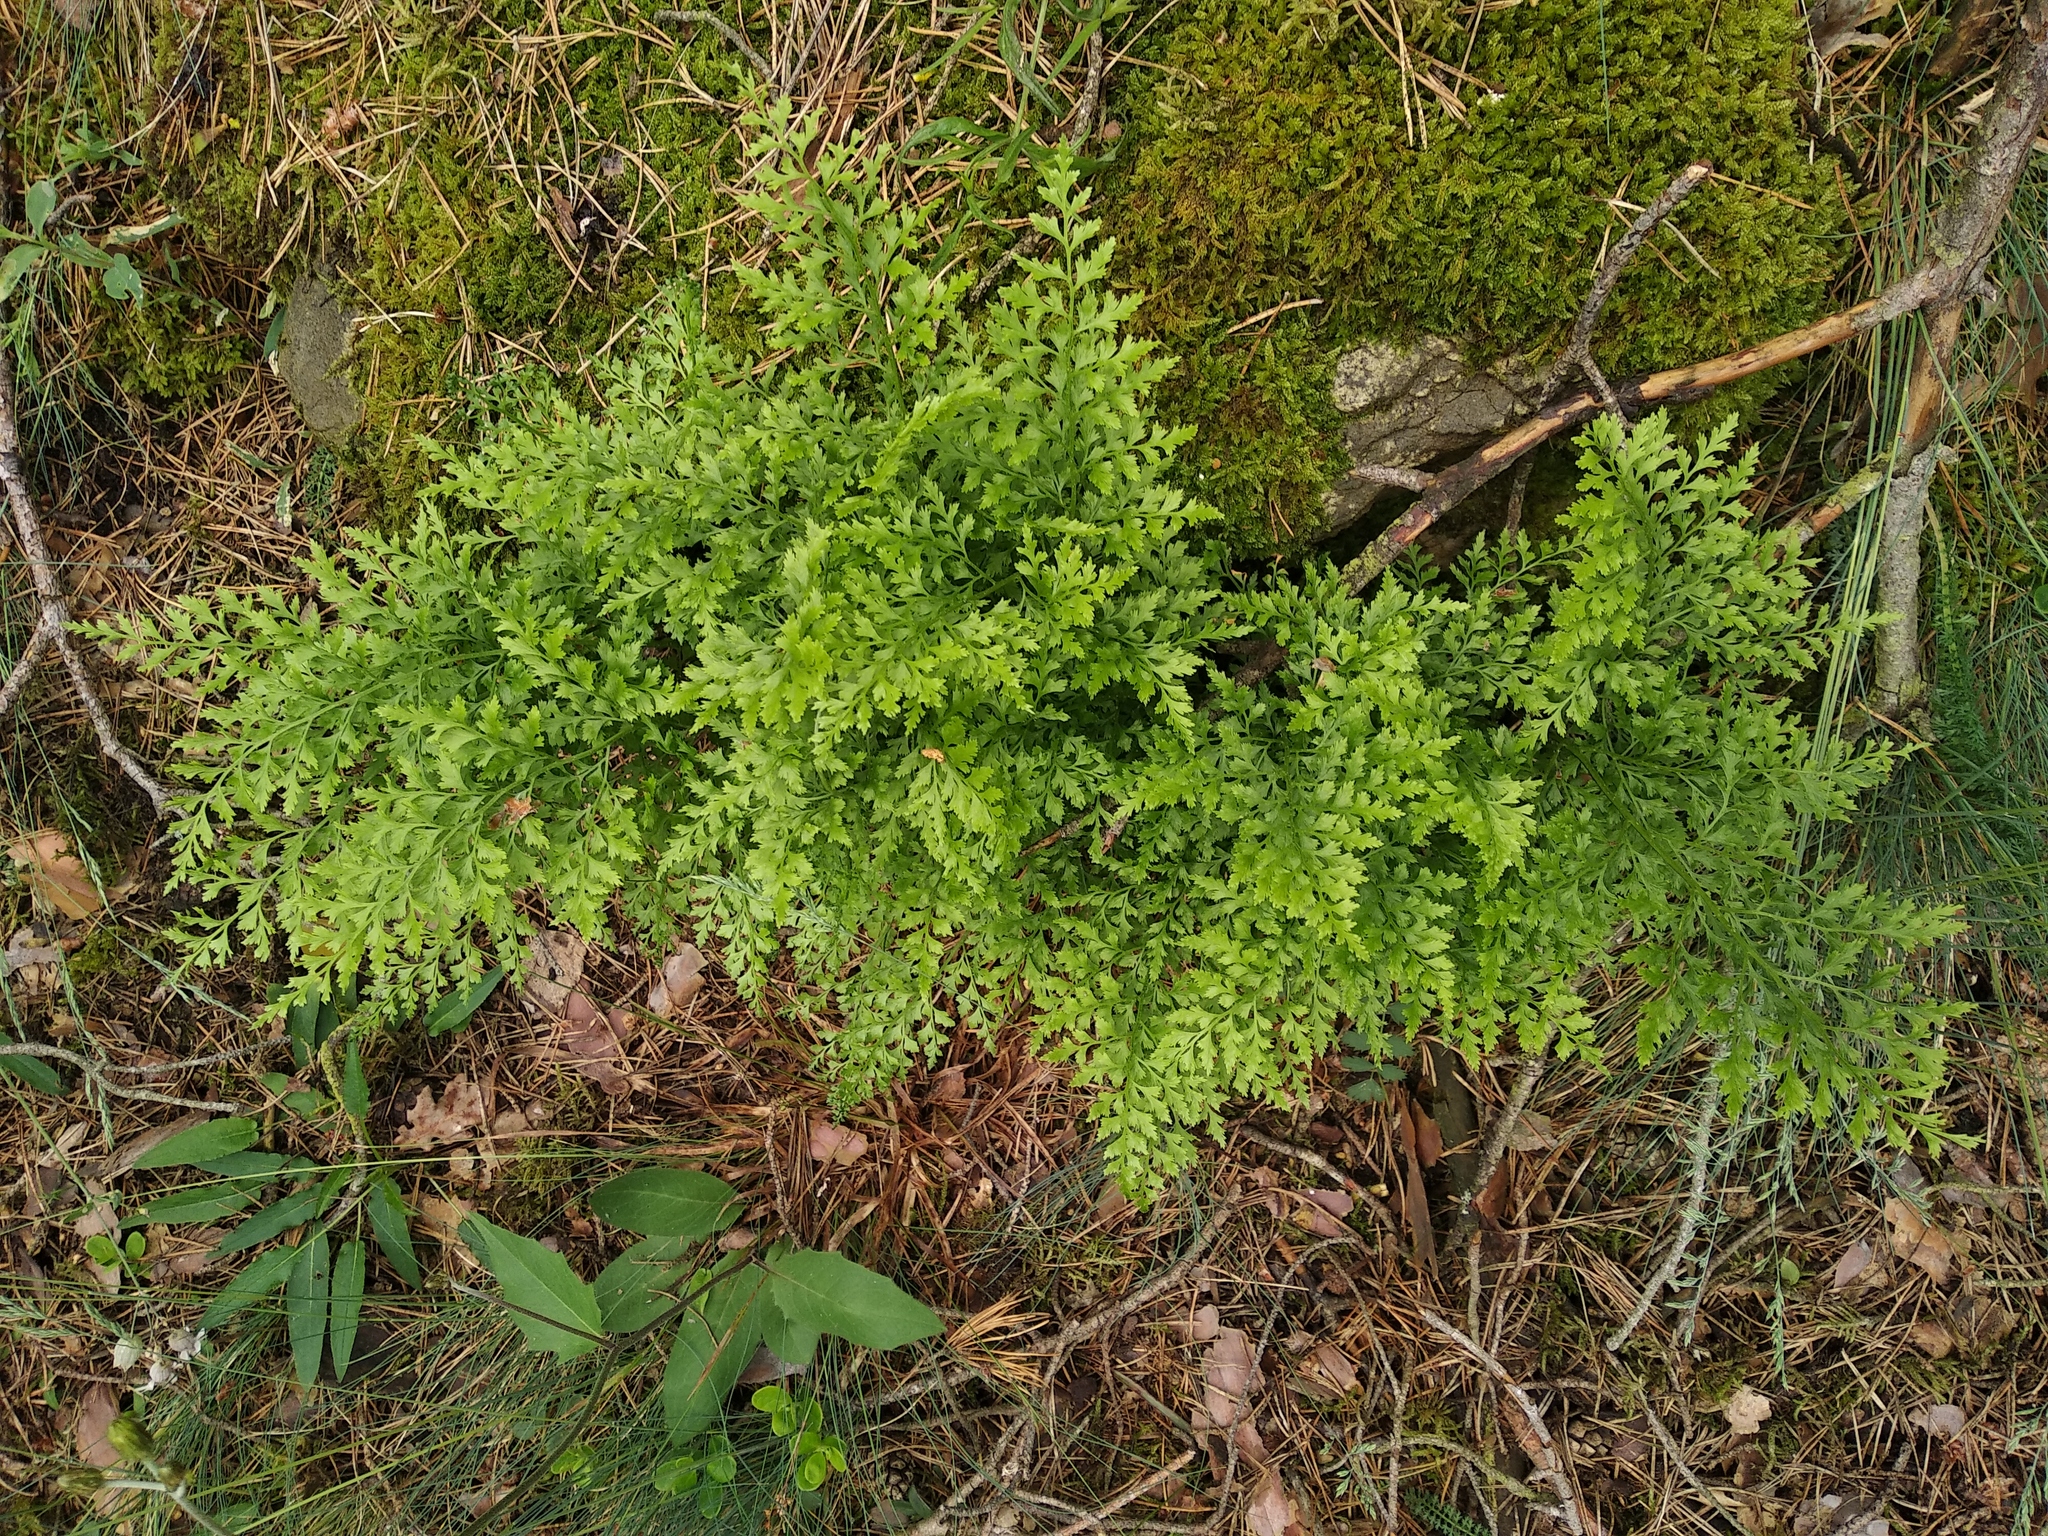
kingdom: Plantae
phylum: Tracheophyta
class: Polypodiopsida
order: Polypodiales
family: Aspleniaceae
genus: Asplenium
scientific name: Asplenium cuneifolium
